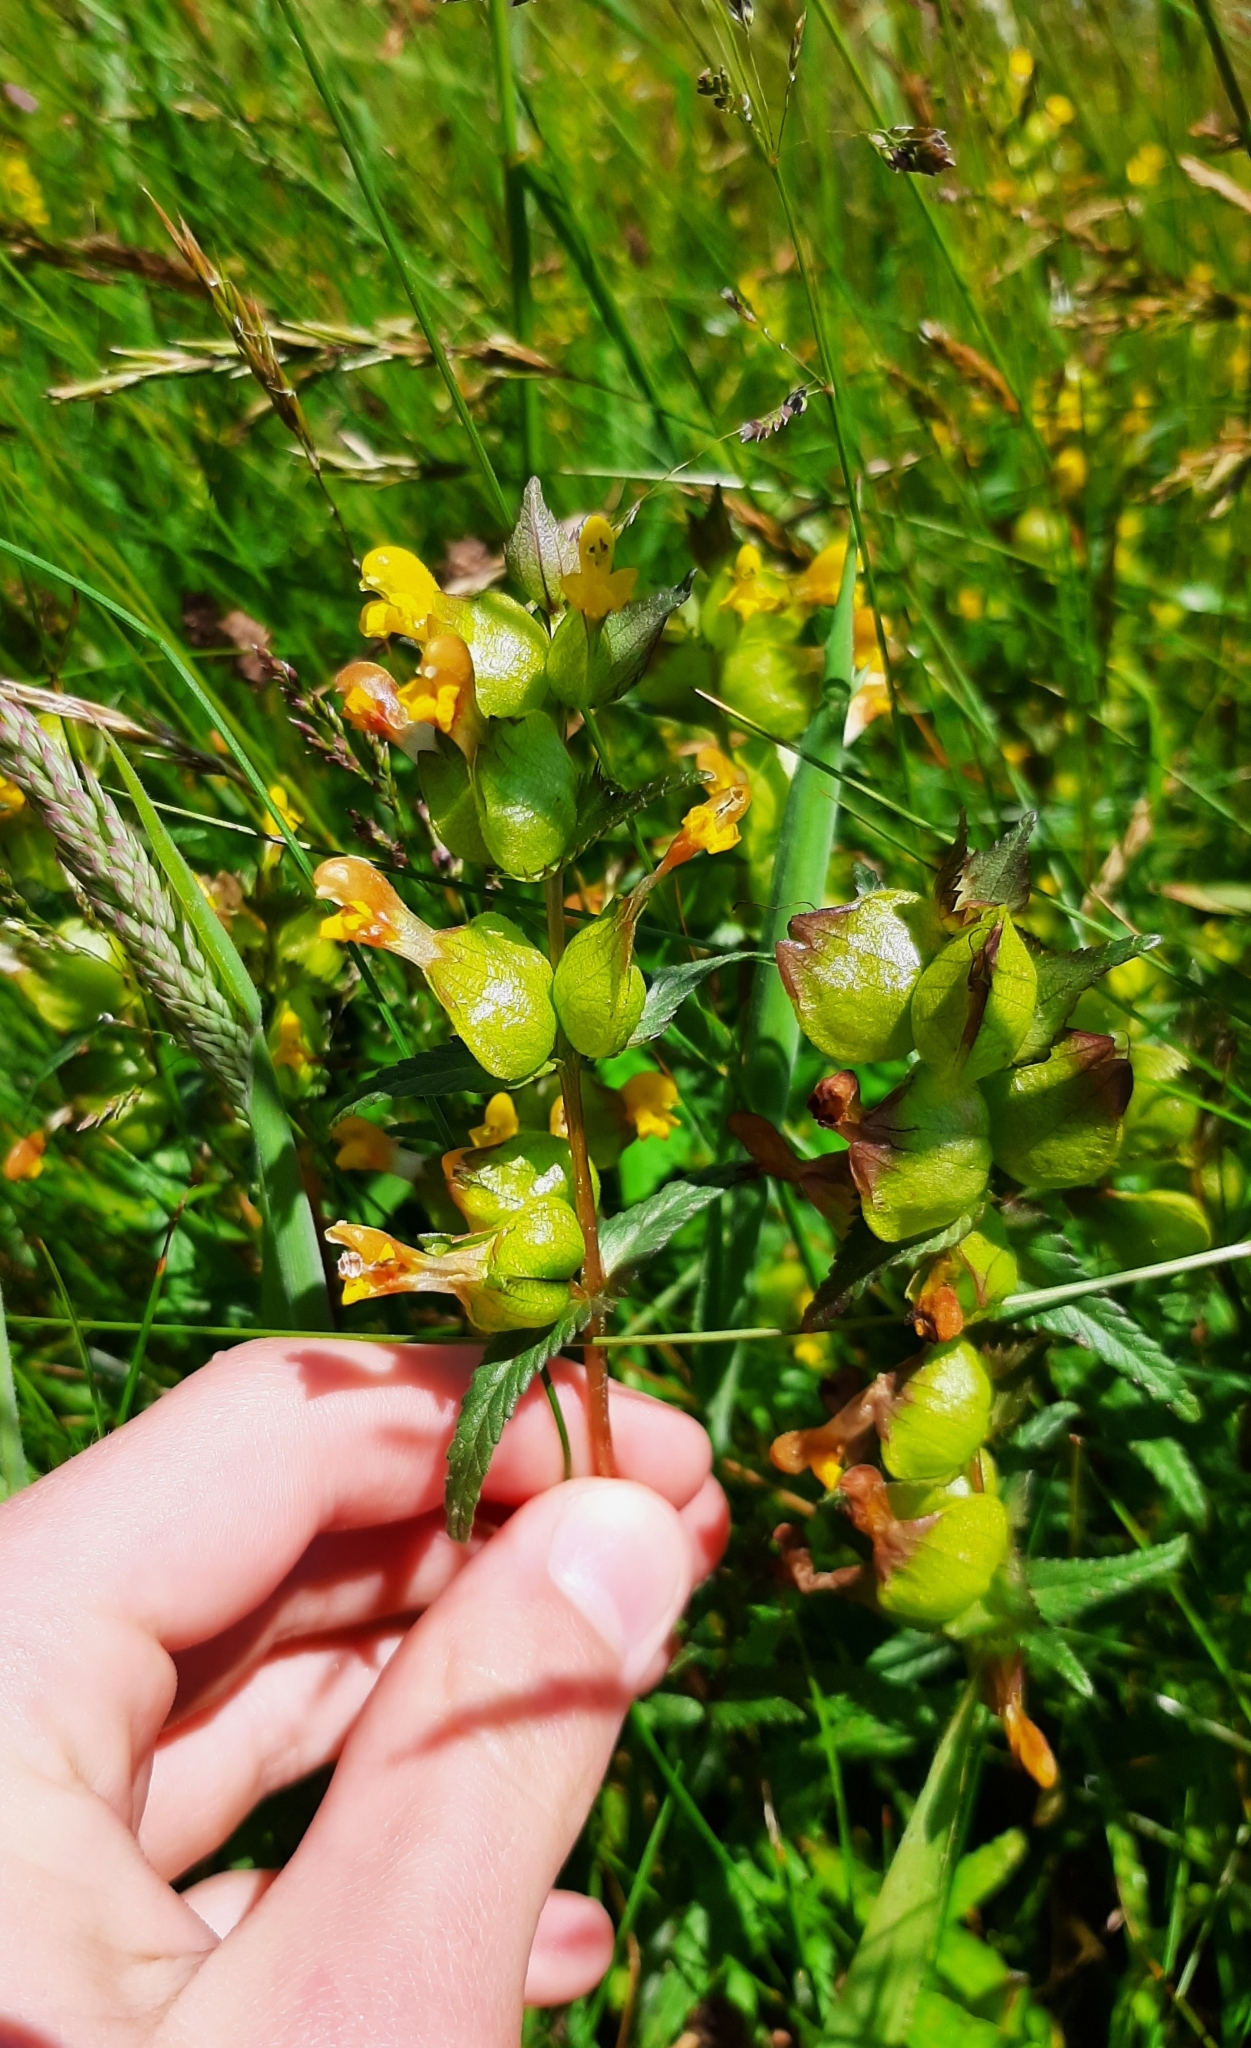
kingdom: Plantae
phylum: Tracheophyta
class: Magnoliopsida
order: Lamiales
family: Orobanchaceae
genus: Rhinanthus
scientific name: Rhinanthus minor
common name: Yellow-rattle
